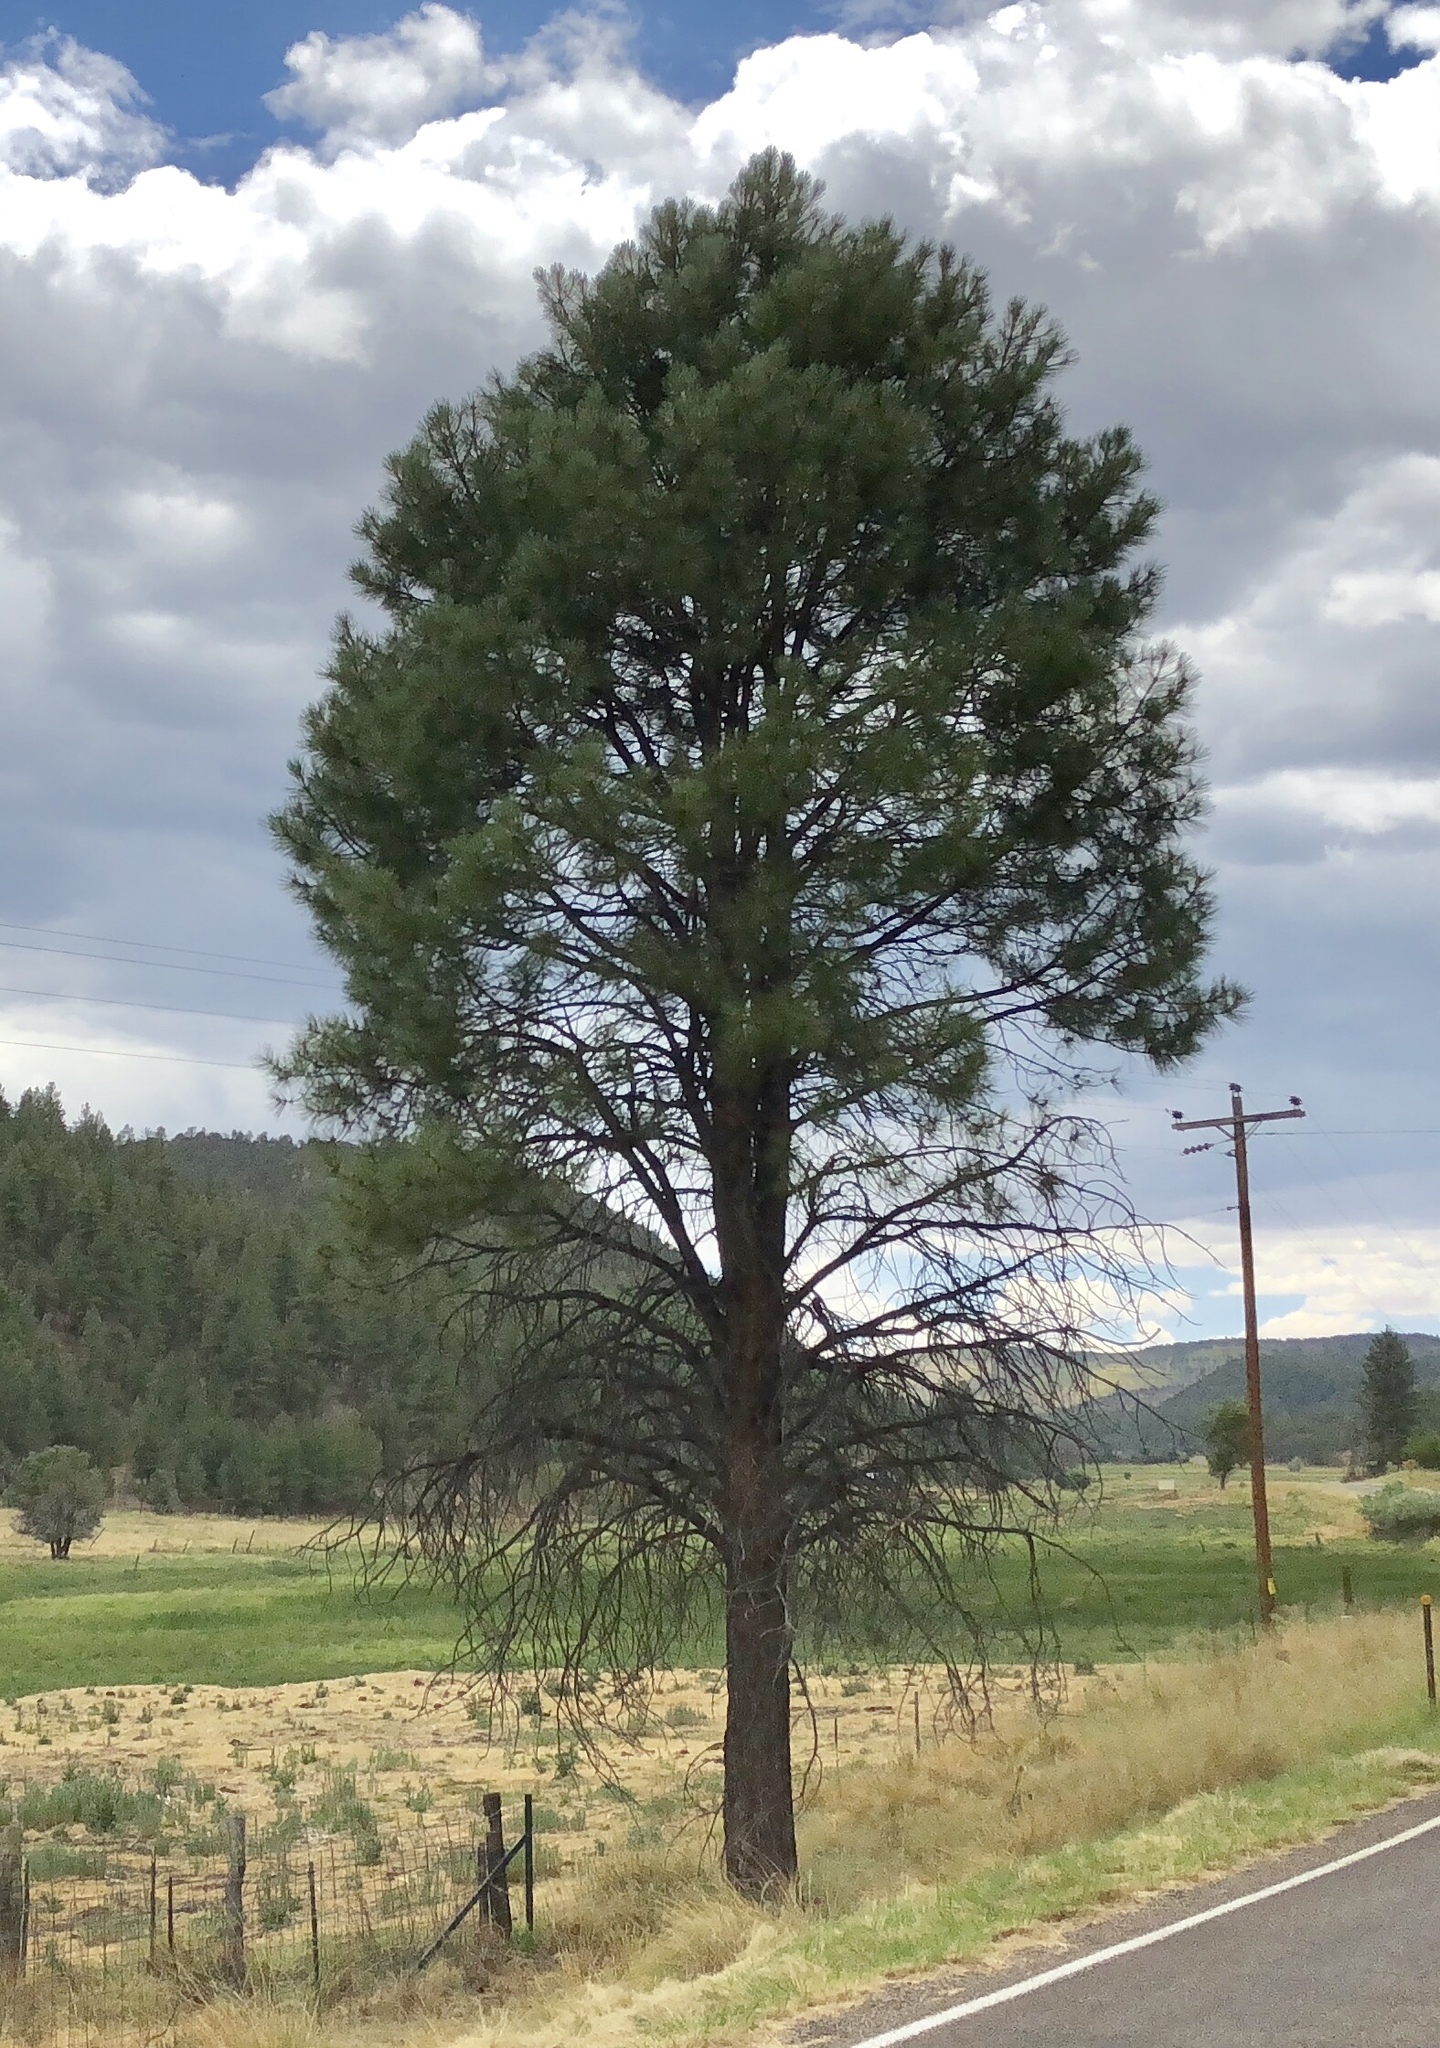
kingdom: Plantae
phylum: Tracheophyta
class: Pinopsida
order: Pinales
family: Pinaceae
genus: Pinus
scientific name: Pinus ponderosa
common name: Western yellow-pine
